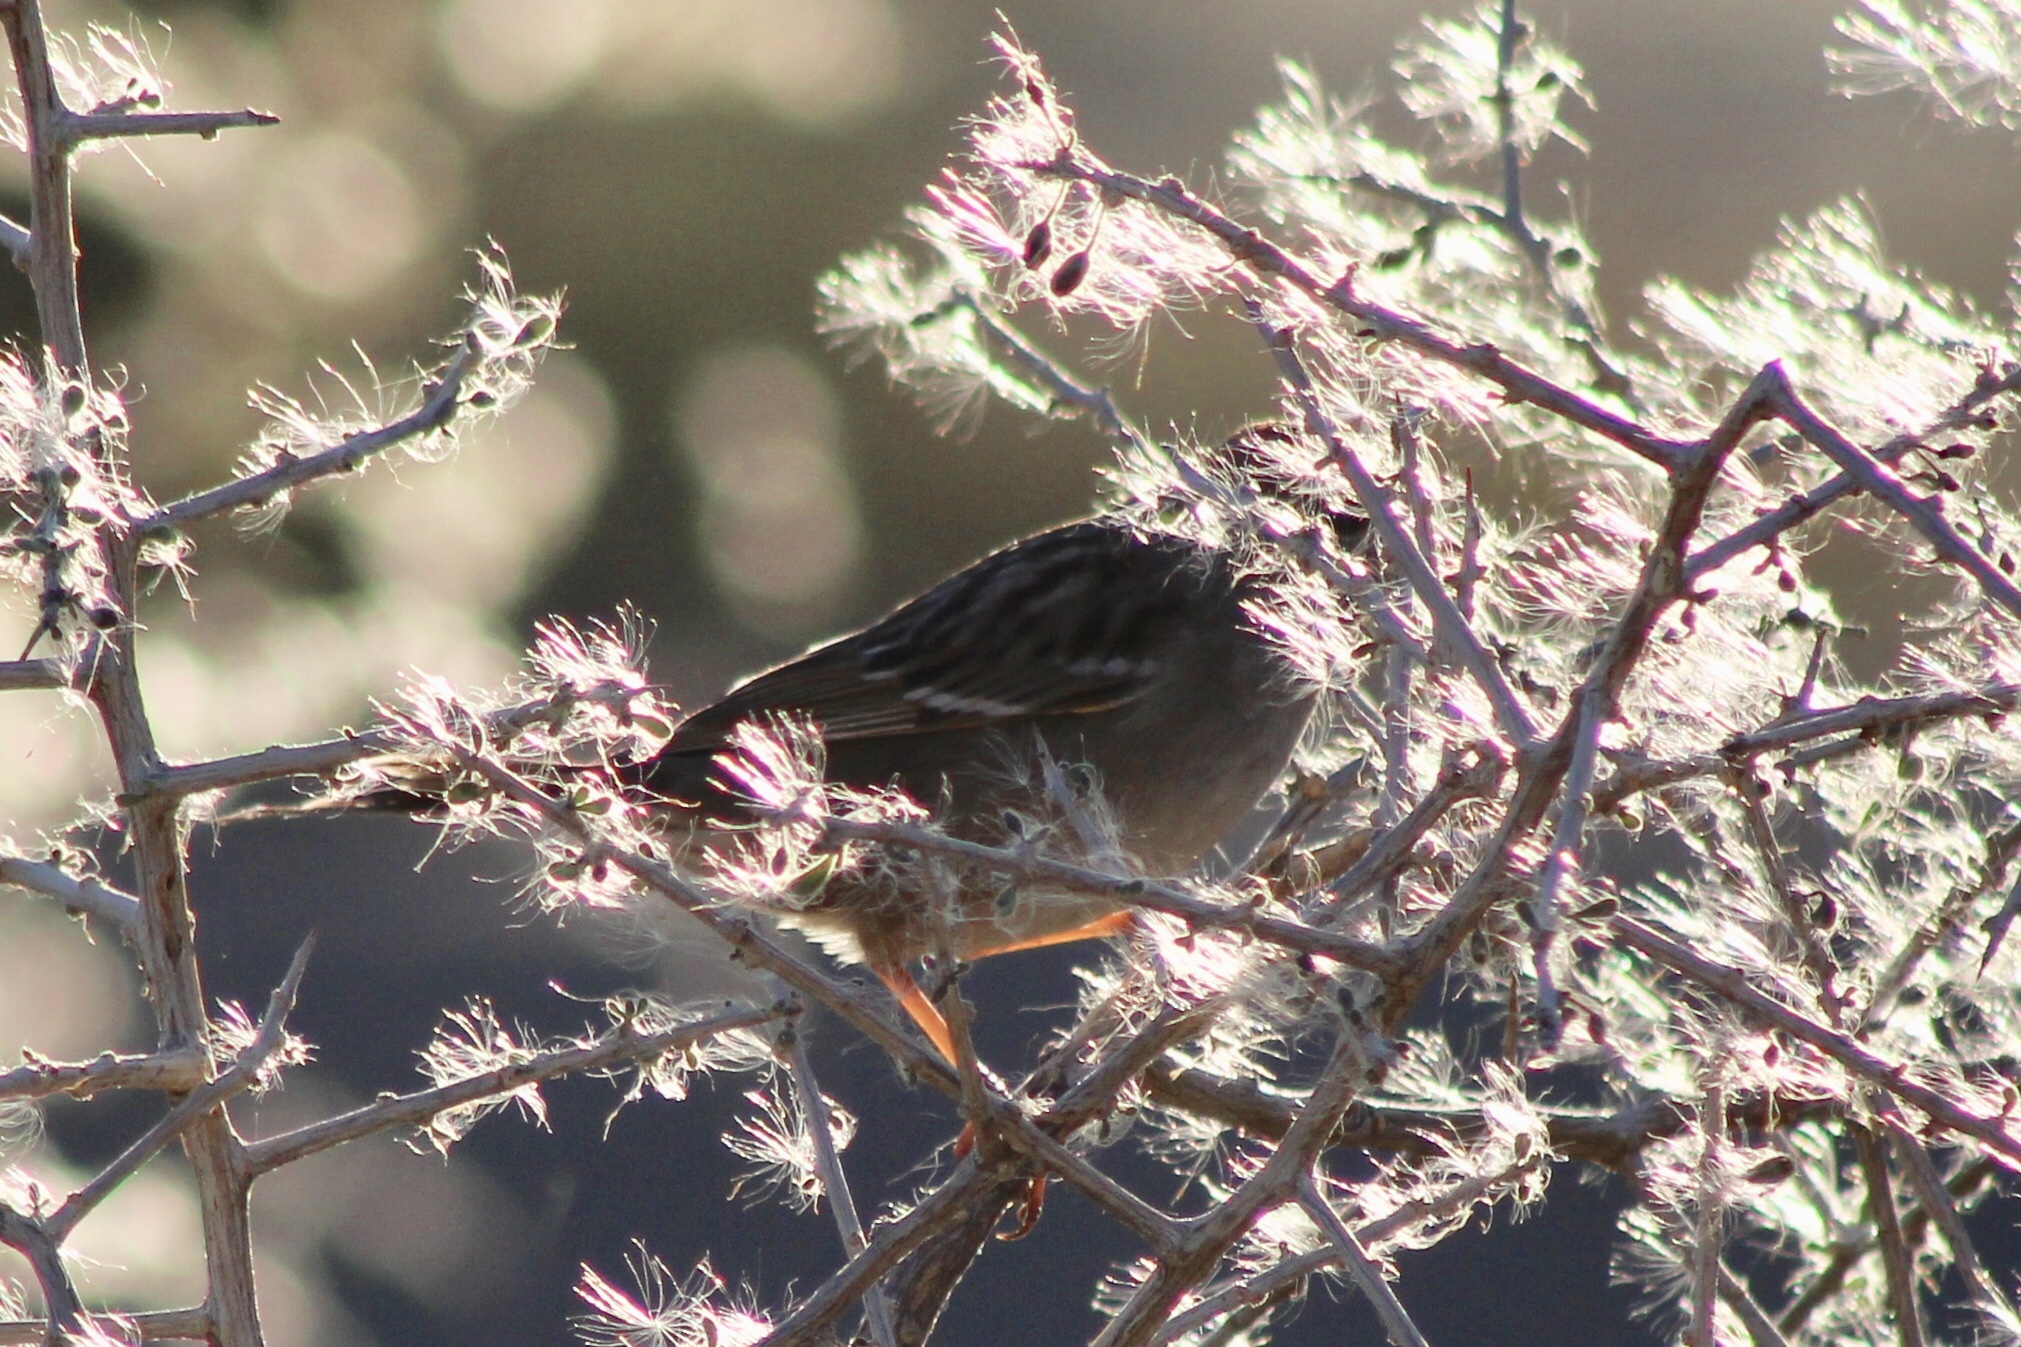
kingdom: Animalia
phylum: Chordata
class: Aves
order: Passeriformes
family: Passerellidae
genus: Zonotrichia
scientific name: Zonotrichia leucophrys
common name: White-crowned sparrow
